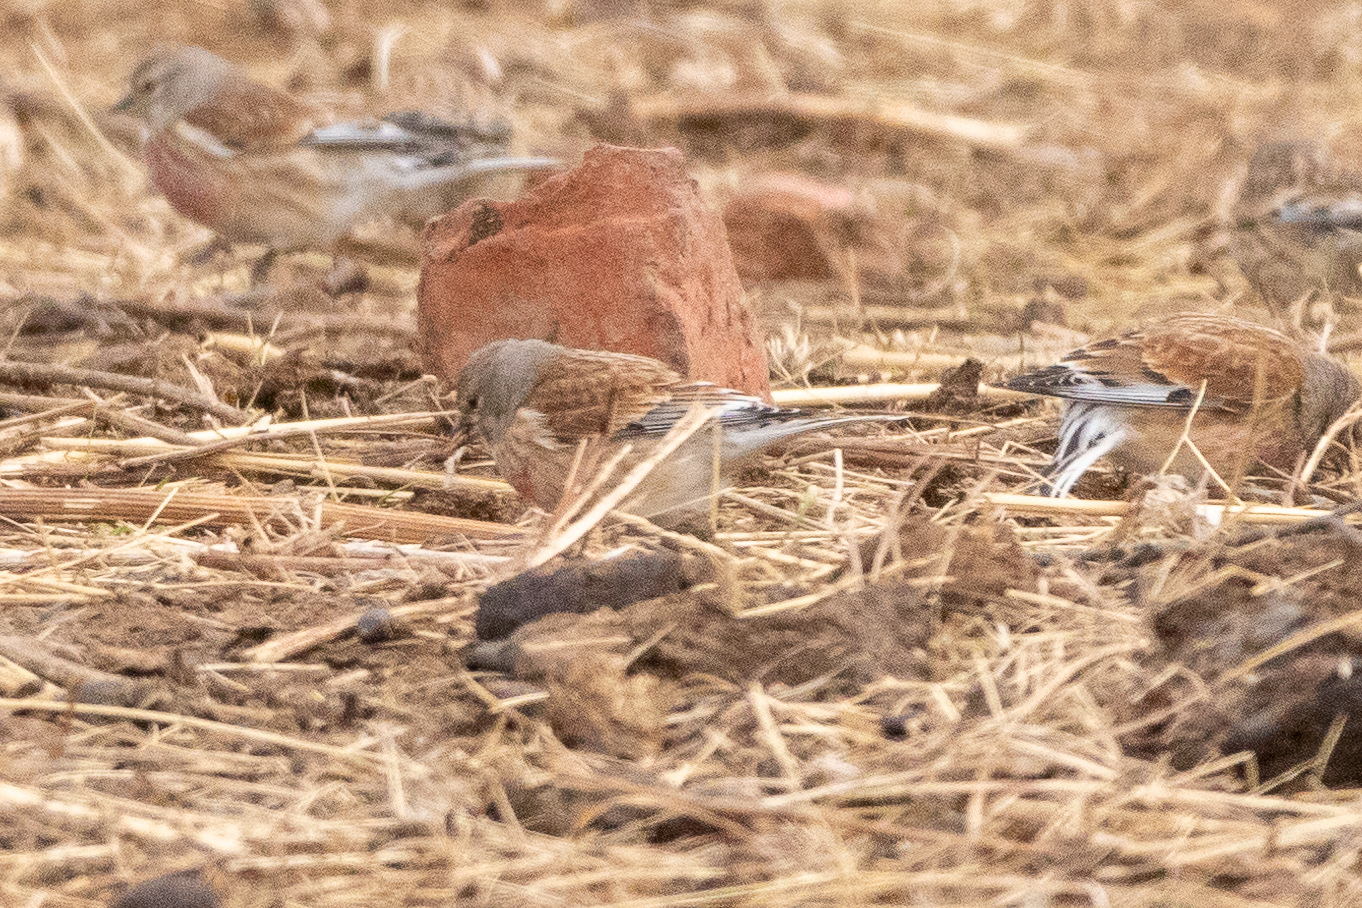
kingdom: Animalia
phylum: Chordata
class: Aves
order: Passeriformes
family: Fringillidae
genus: Linaria
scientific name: Linaria cannabina
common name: Common linnet
